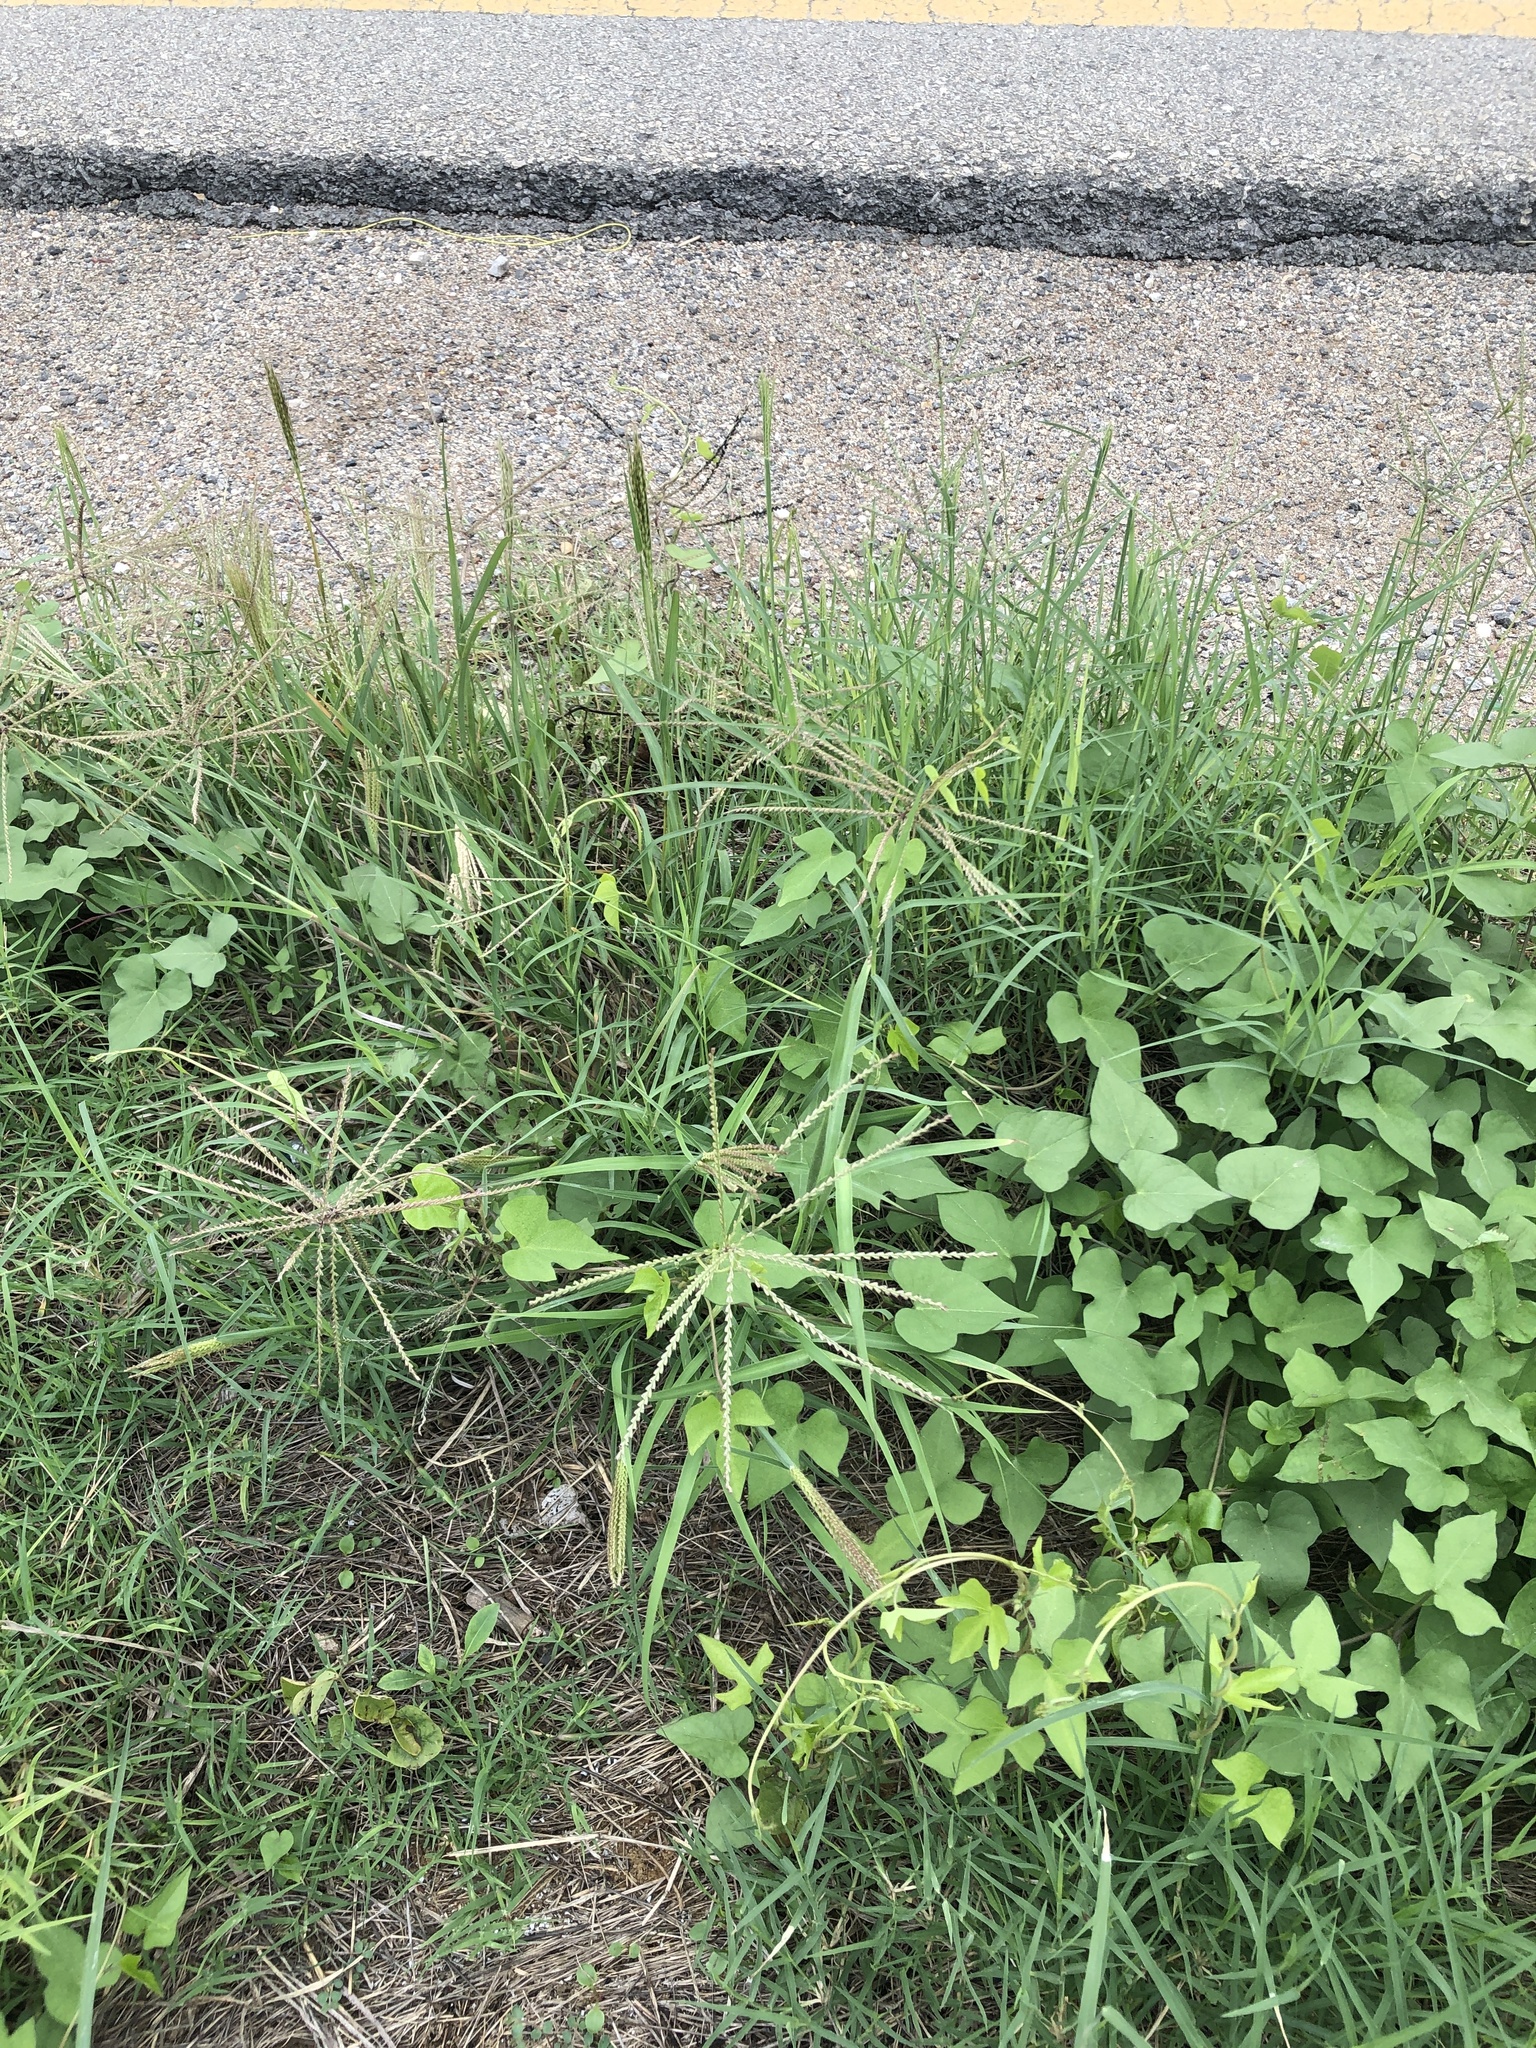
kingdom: Plantae
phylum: Tracheophyta
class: Liliopsida
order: Poales
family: Poaceae
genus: Chloris
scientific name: Chloris verticillata
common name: Tumble windmill grass
